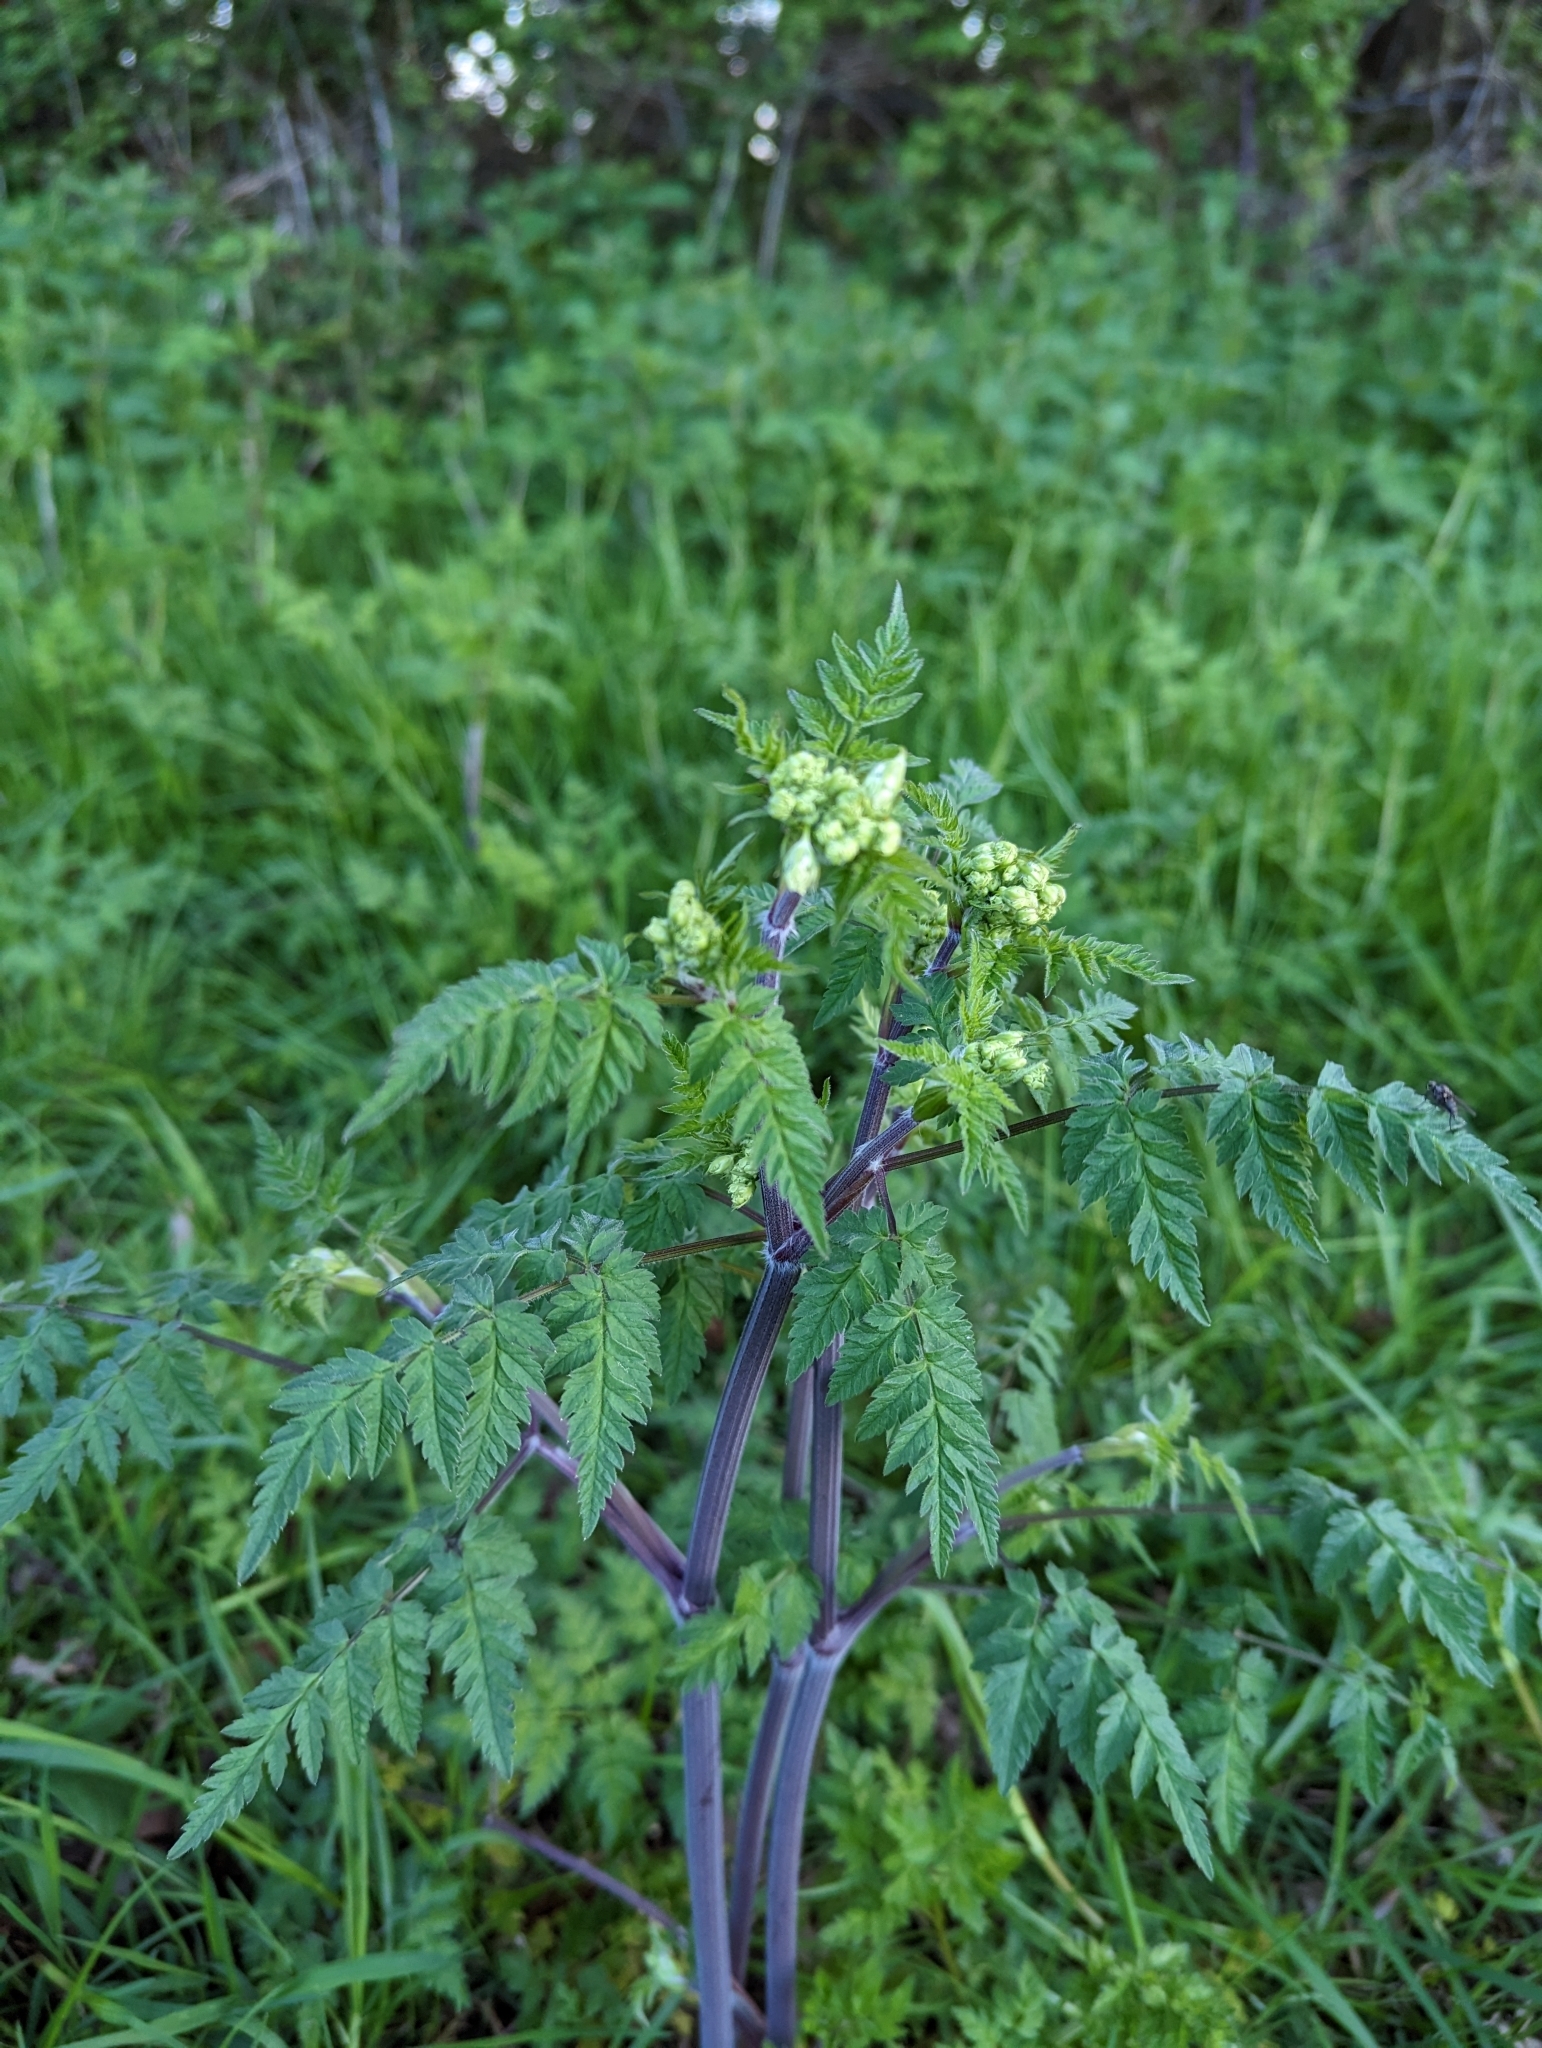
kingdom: Plantae
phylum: Tracheophyta
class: Magnoliopsida
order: Apiales
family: Apiaceae
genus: Anthriscus
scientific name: Anthriscus sylvestris
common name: Cow parsley
